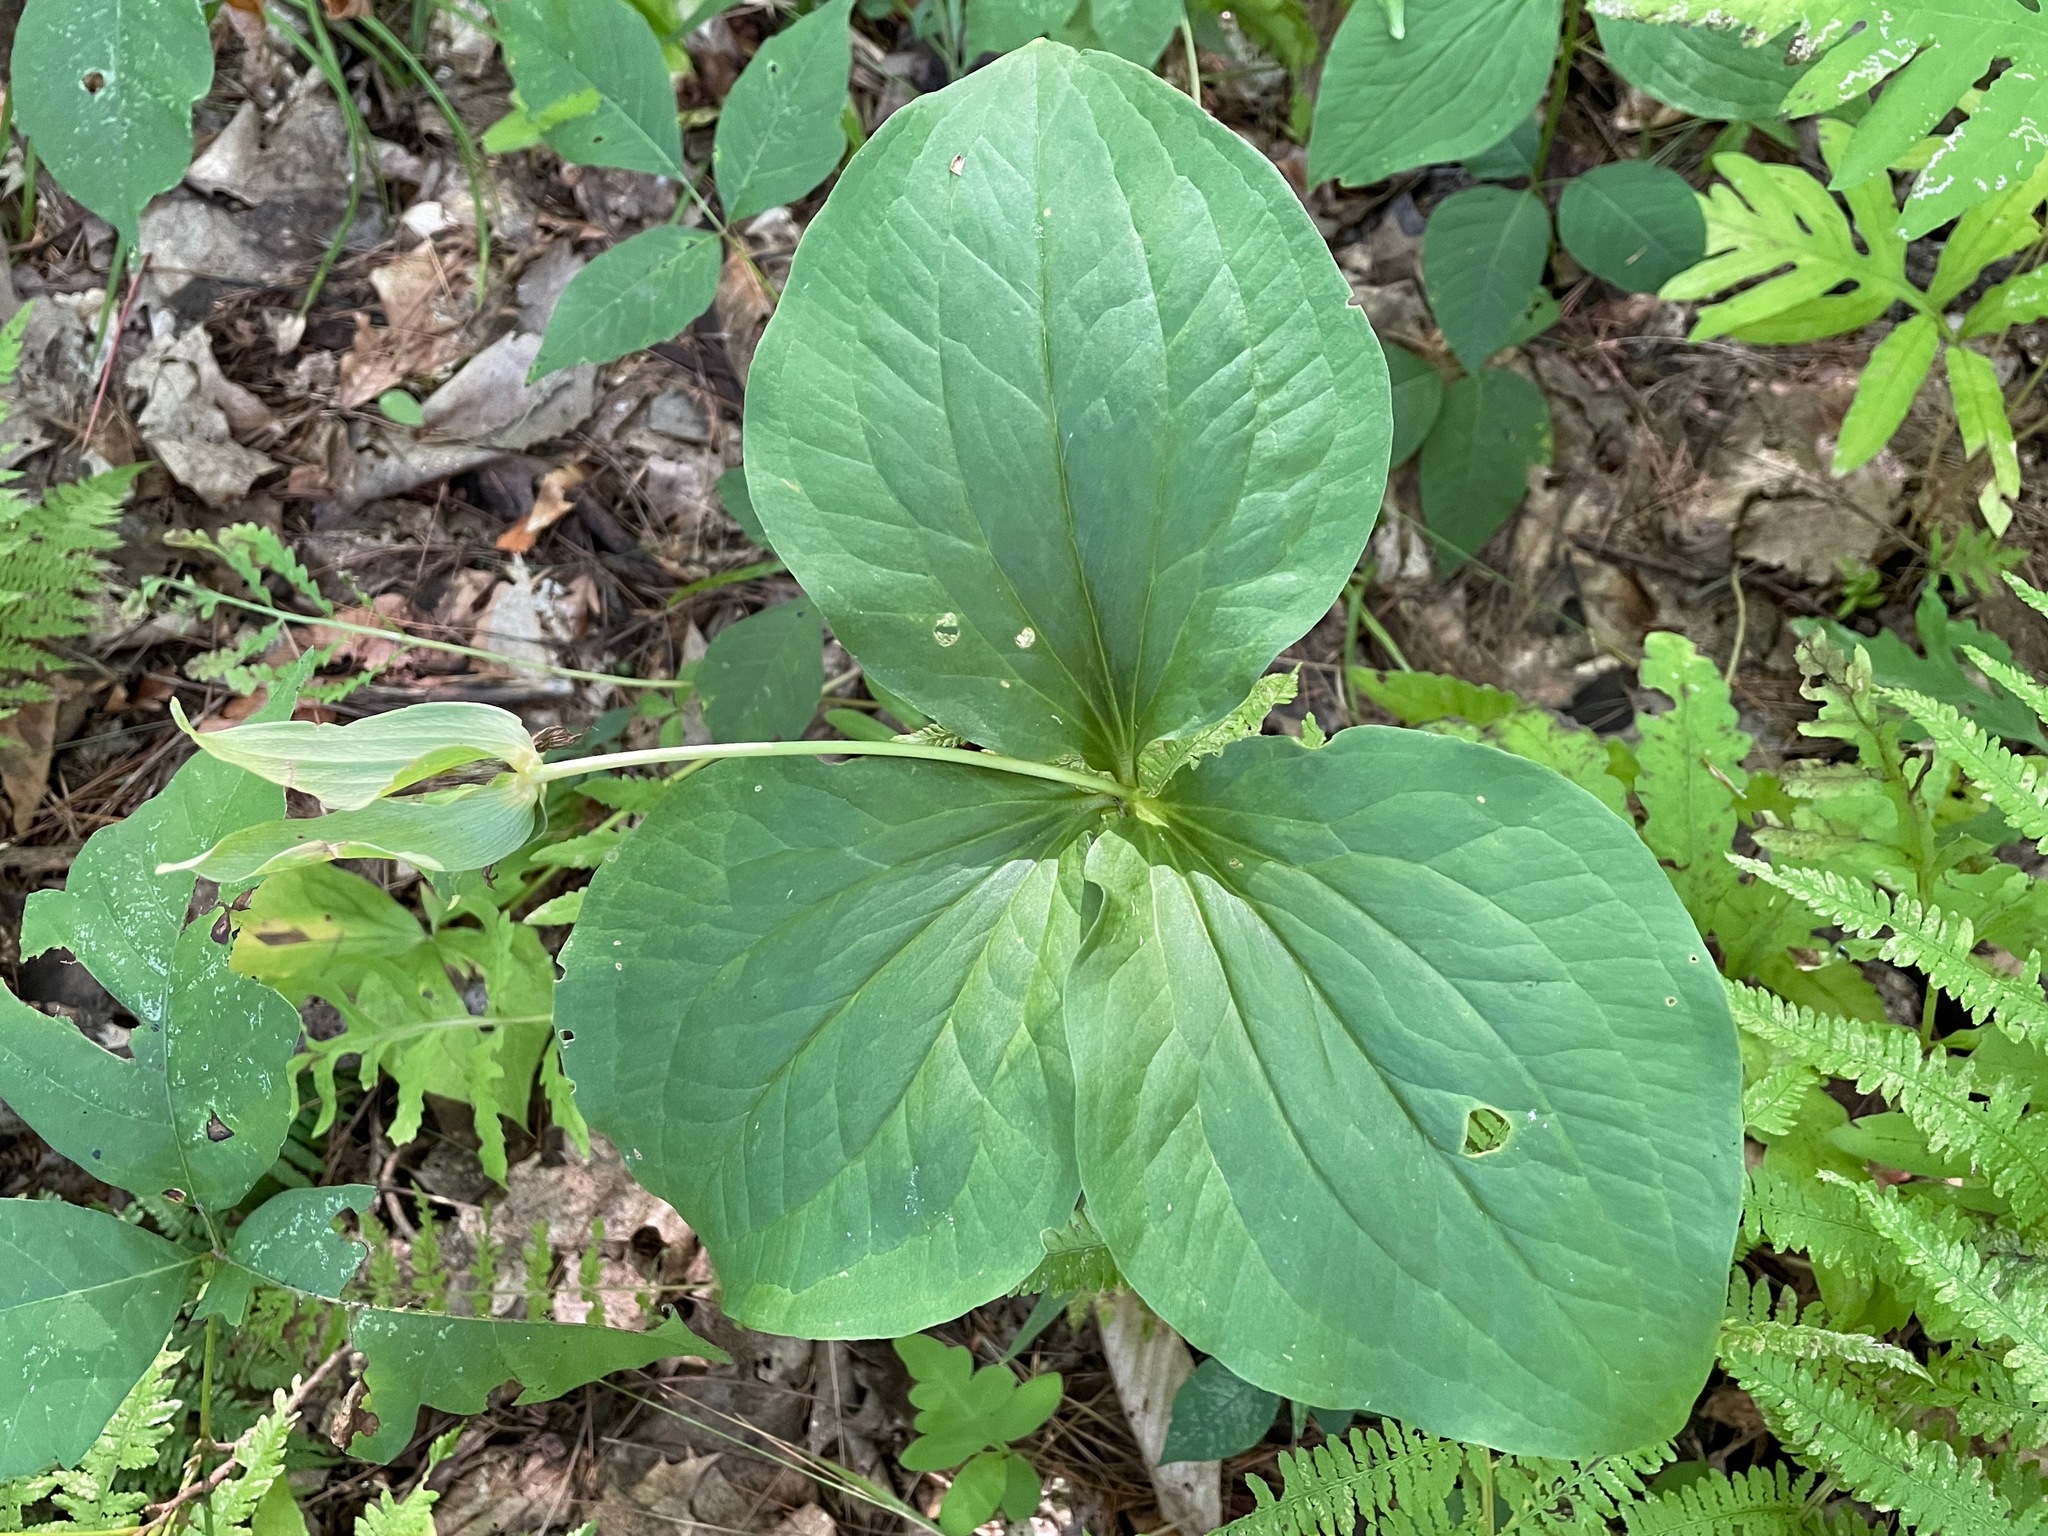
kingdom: Plantae
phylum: Tracheophyta
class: Liliopsida
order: Liliales
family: Melanthiaceae
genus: Trillium
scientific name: Trillium grandiflorum
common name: Great white trillium
